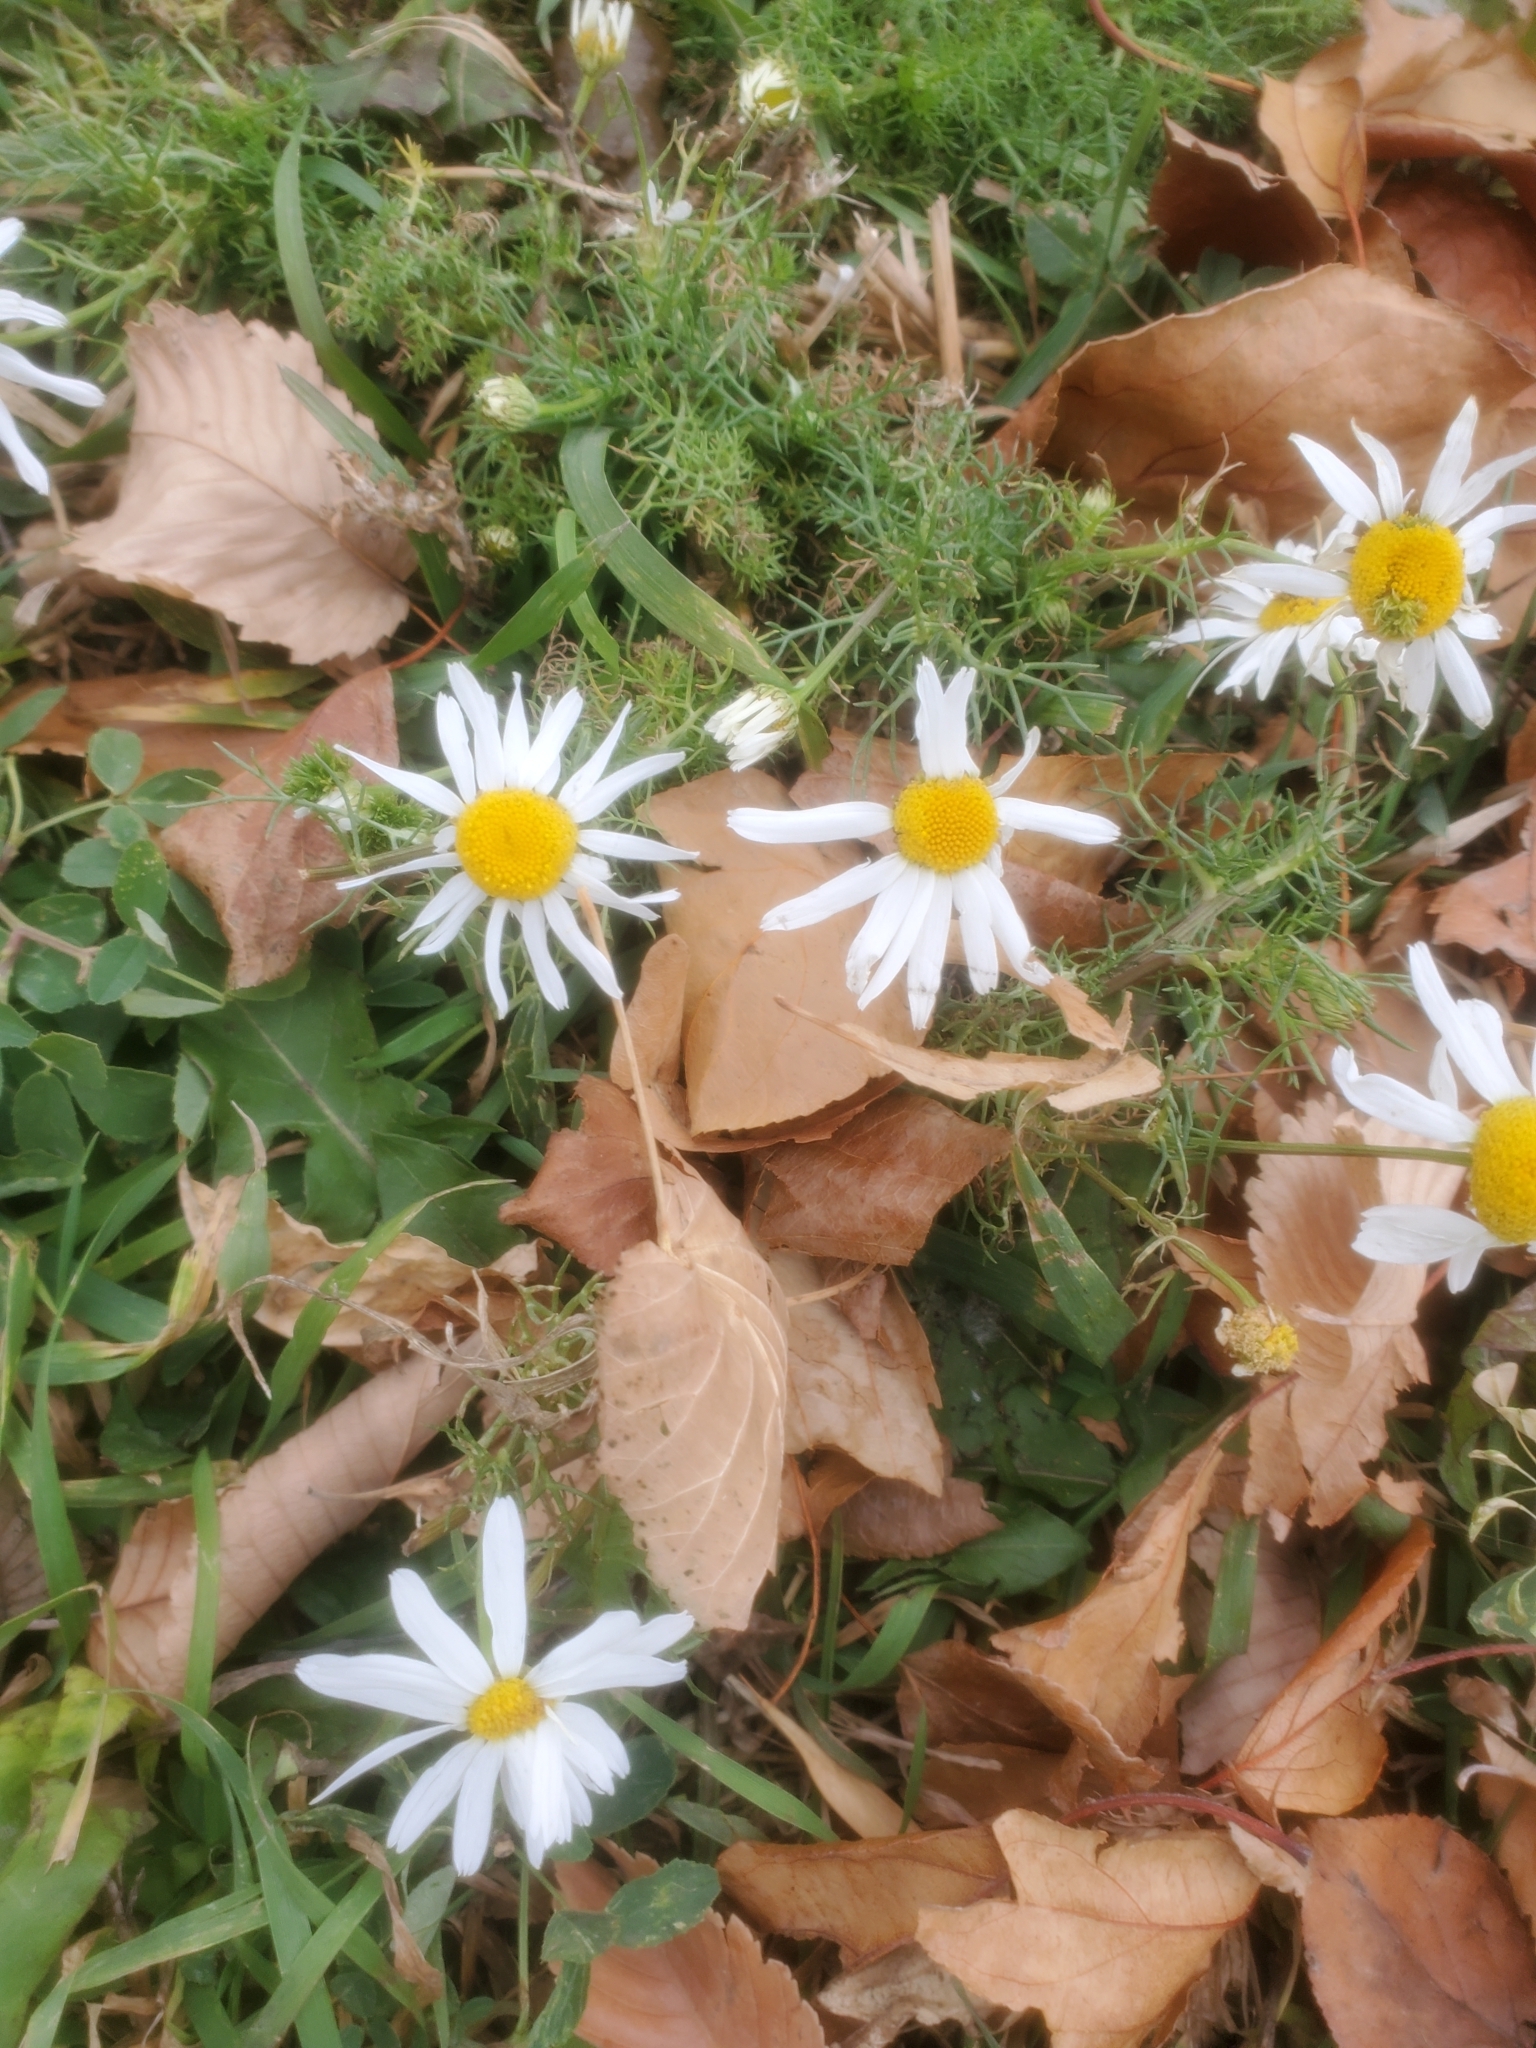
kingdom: Plantae
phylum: Tracheophyta
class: Magnoliopsida
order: Asterales
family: Asteraceae
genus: Tripleurospermum
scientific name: Tripleurospermum inodorum
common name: Scentless mayweed
